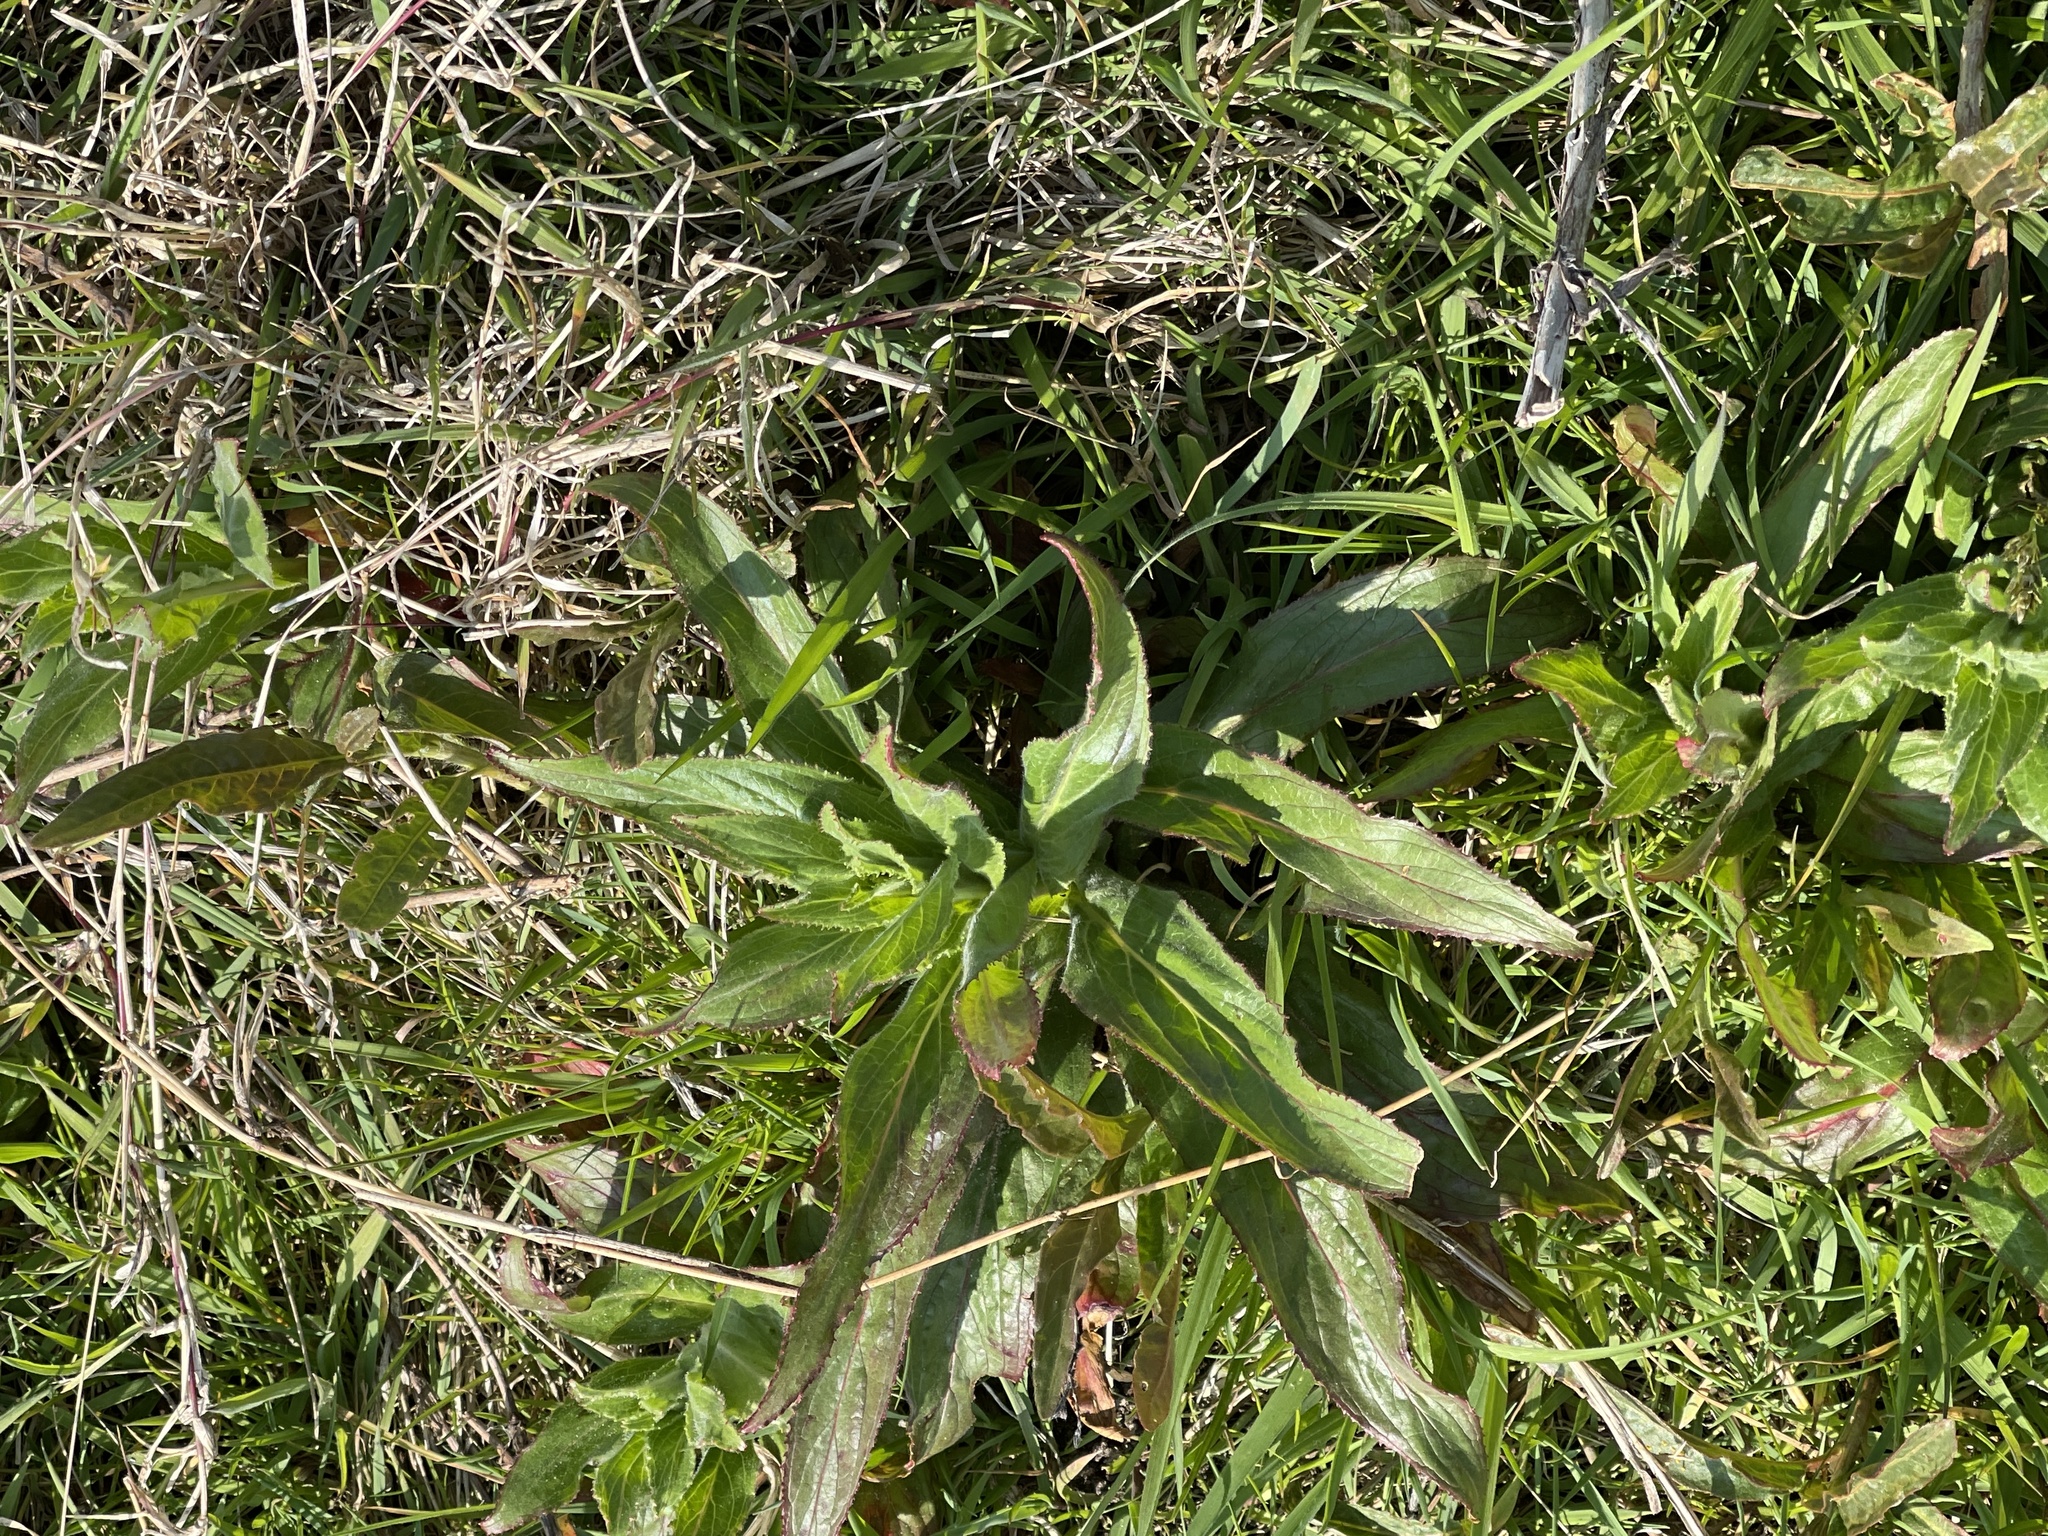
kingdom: Plantae
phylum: Tracheophyta
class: Magnoliopsida
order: Myrtales
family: Onagraceae
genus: Epilobium
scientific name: Epilobium hirsutum
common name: Great willowherb
